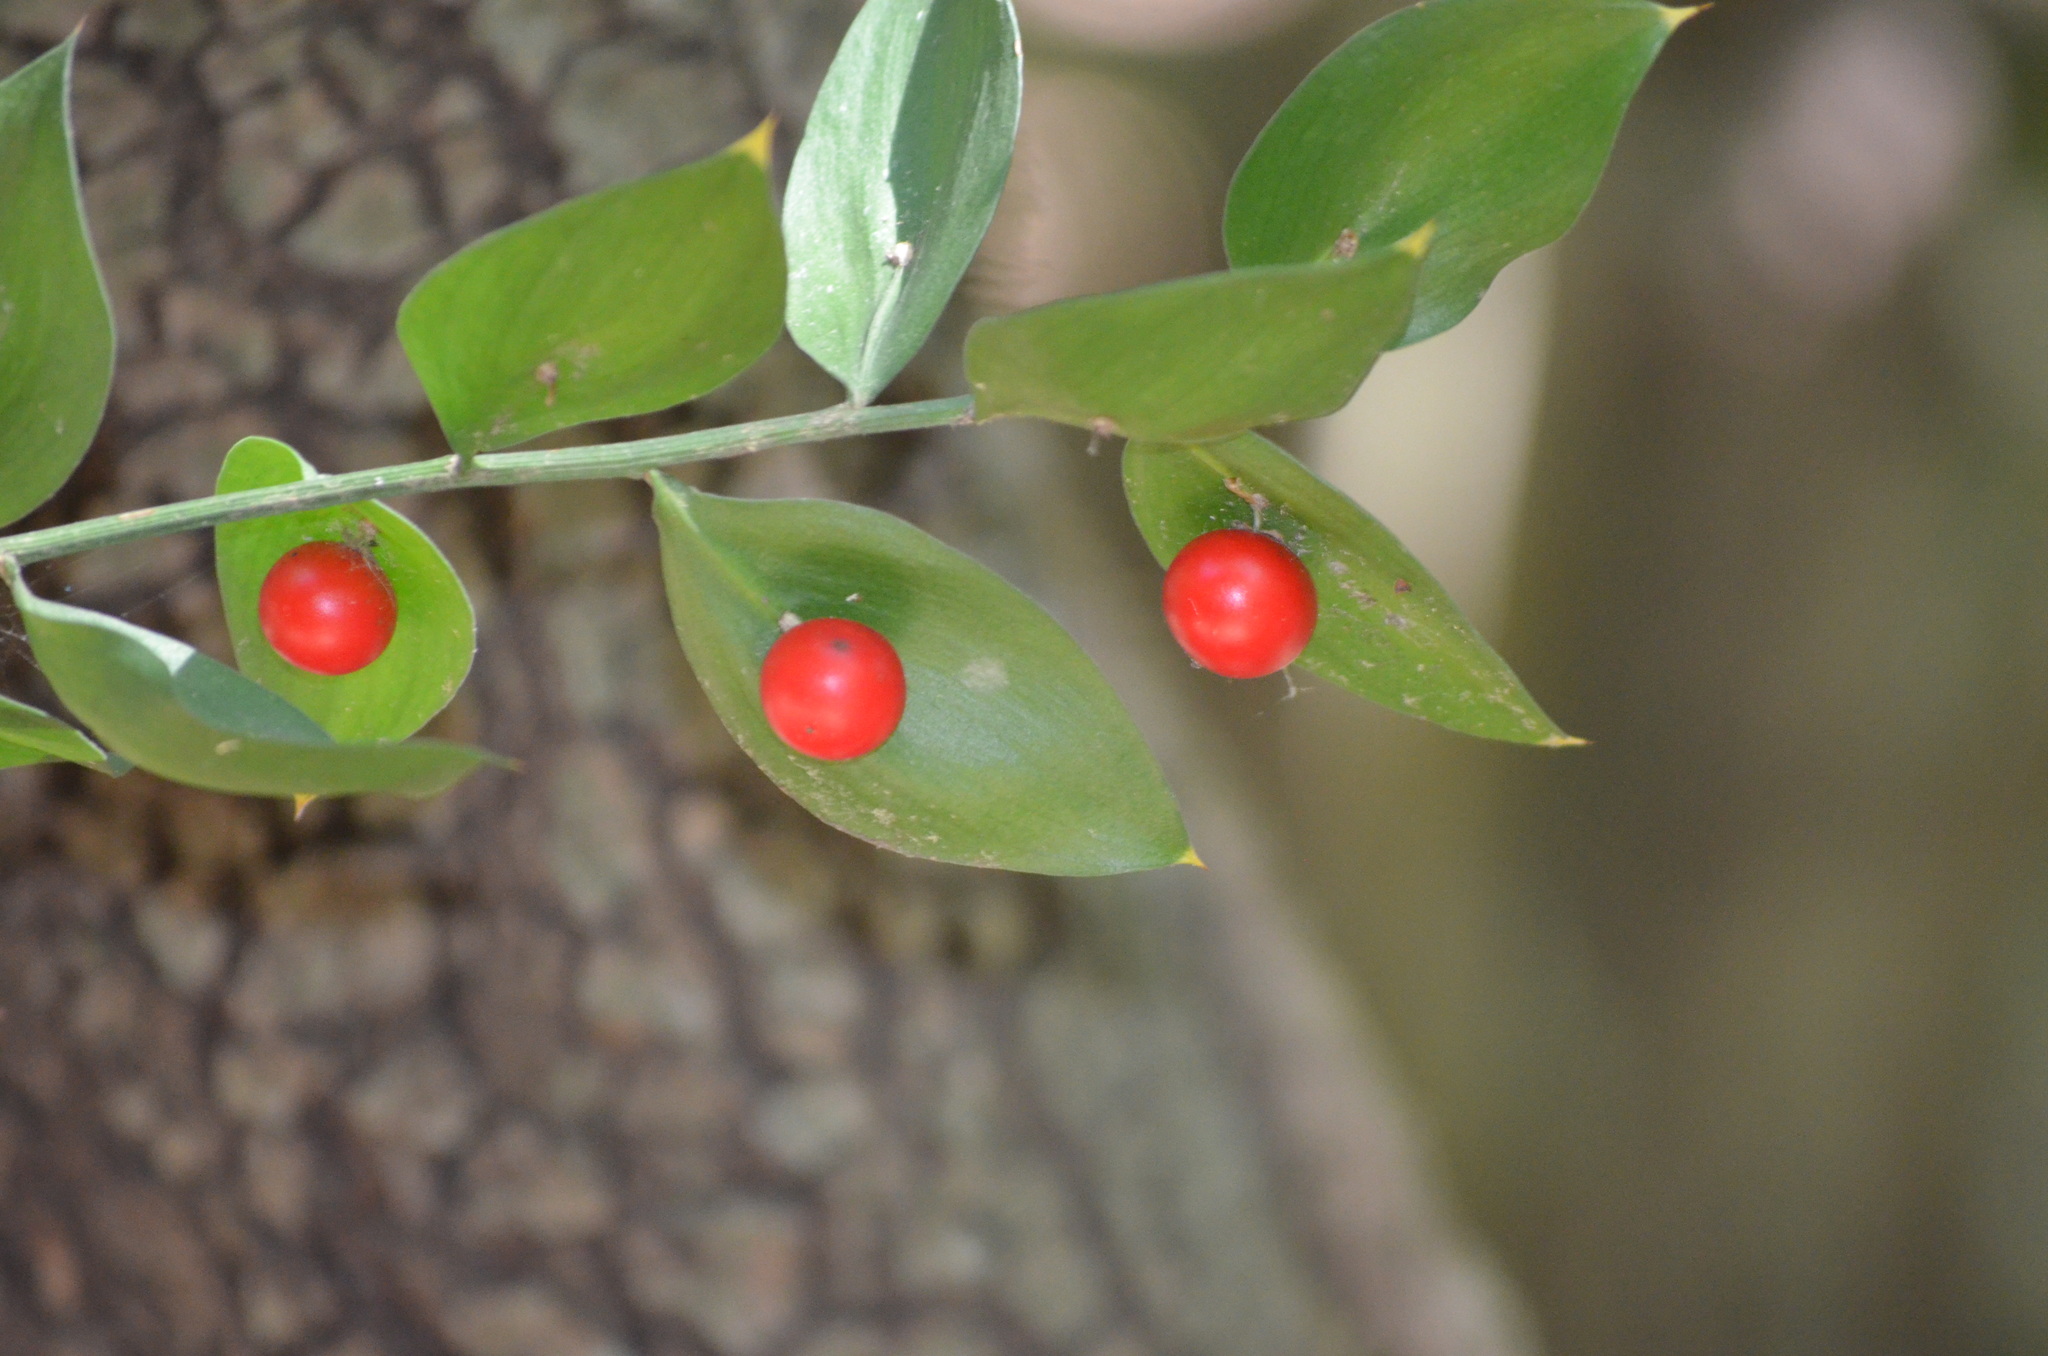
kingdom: Plantae
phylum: Tracheophyta
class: Liliopsida
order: Asparagales
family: Asparagaceae
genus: Ruscus
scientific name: Ruscus aculeatus
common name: Butcher's-broom
